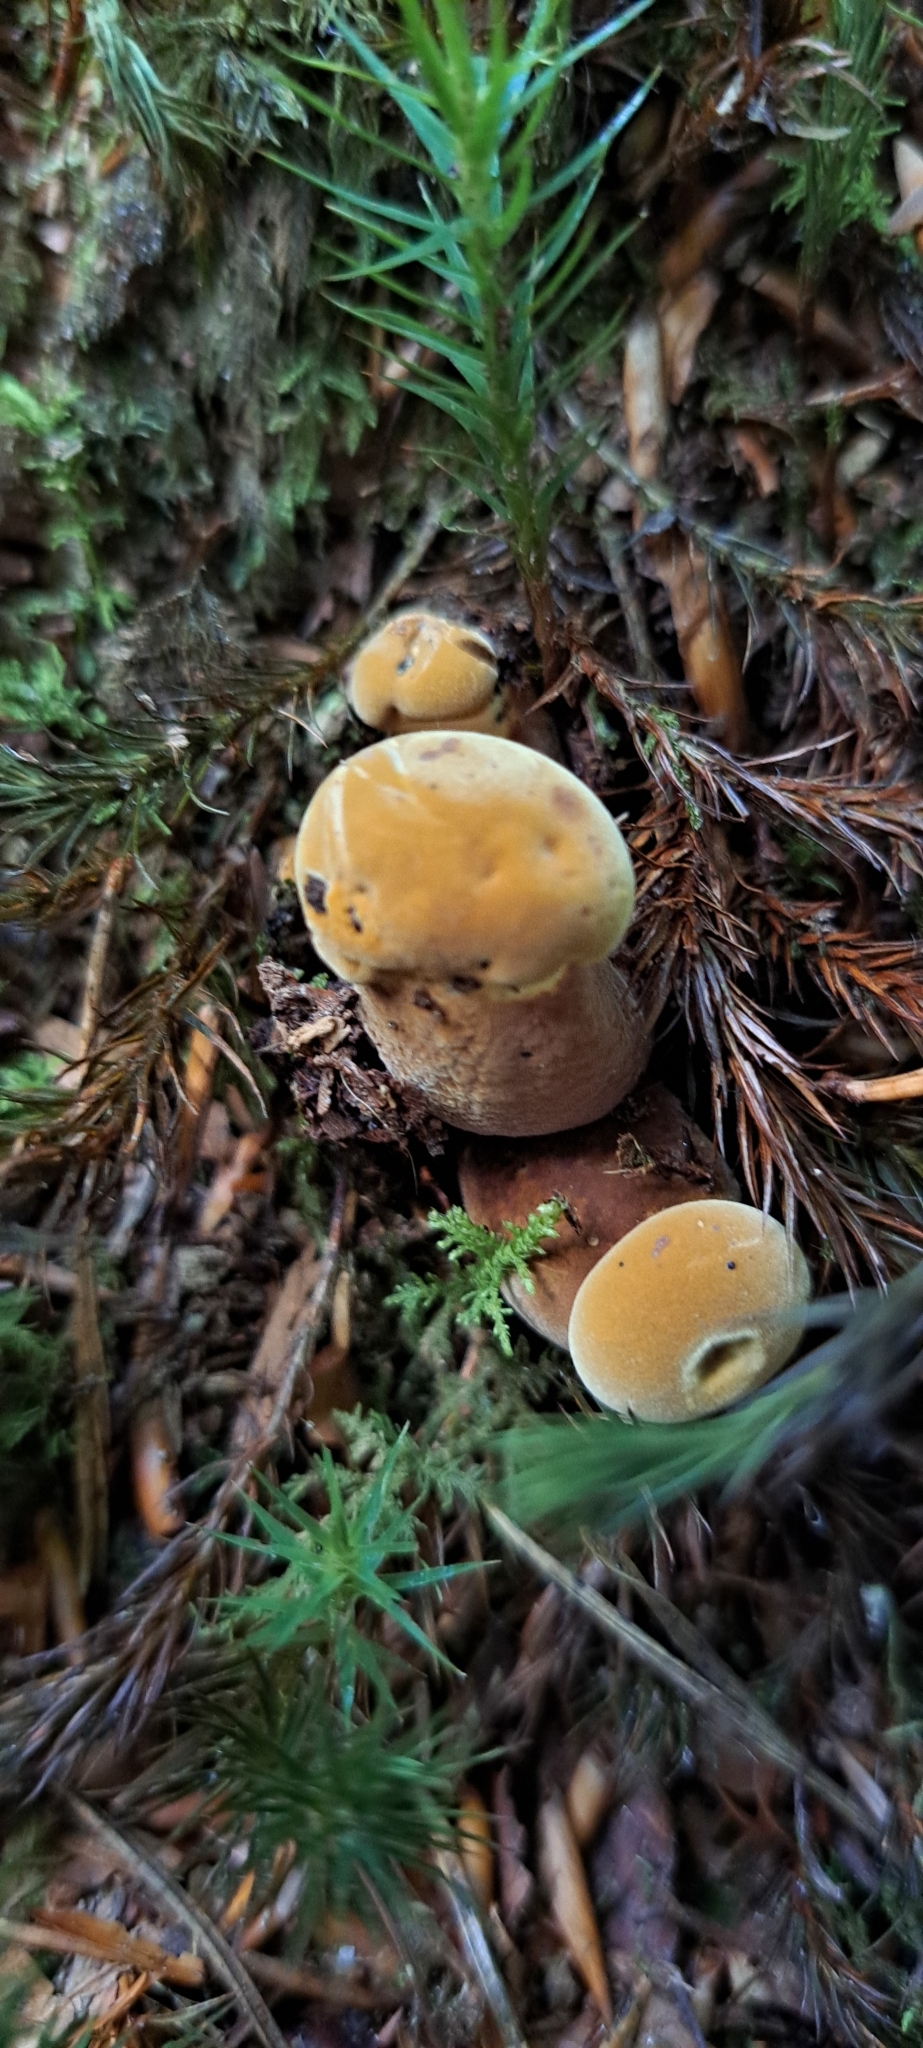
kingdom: Fungi
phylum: Basidiomycota
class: Agaricomycetes
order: Boletales
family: Tapinellaceae
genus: Tapinella
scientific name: Tapinella atrotomentosa
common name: Velvet rollrim
